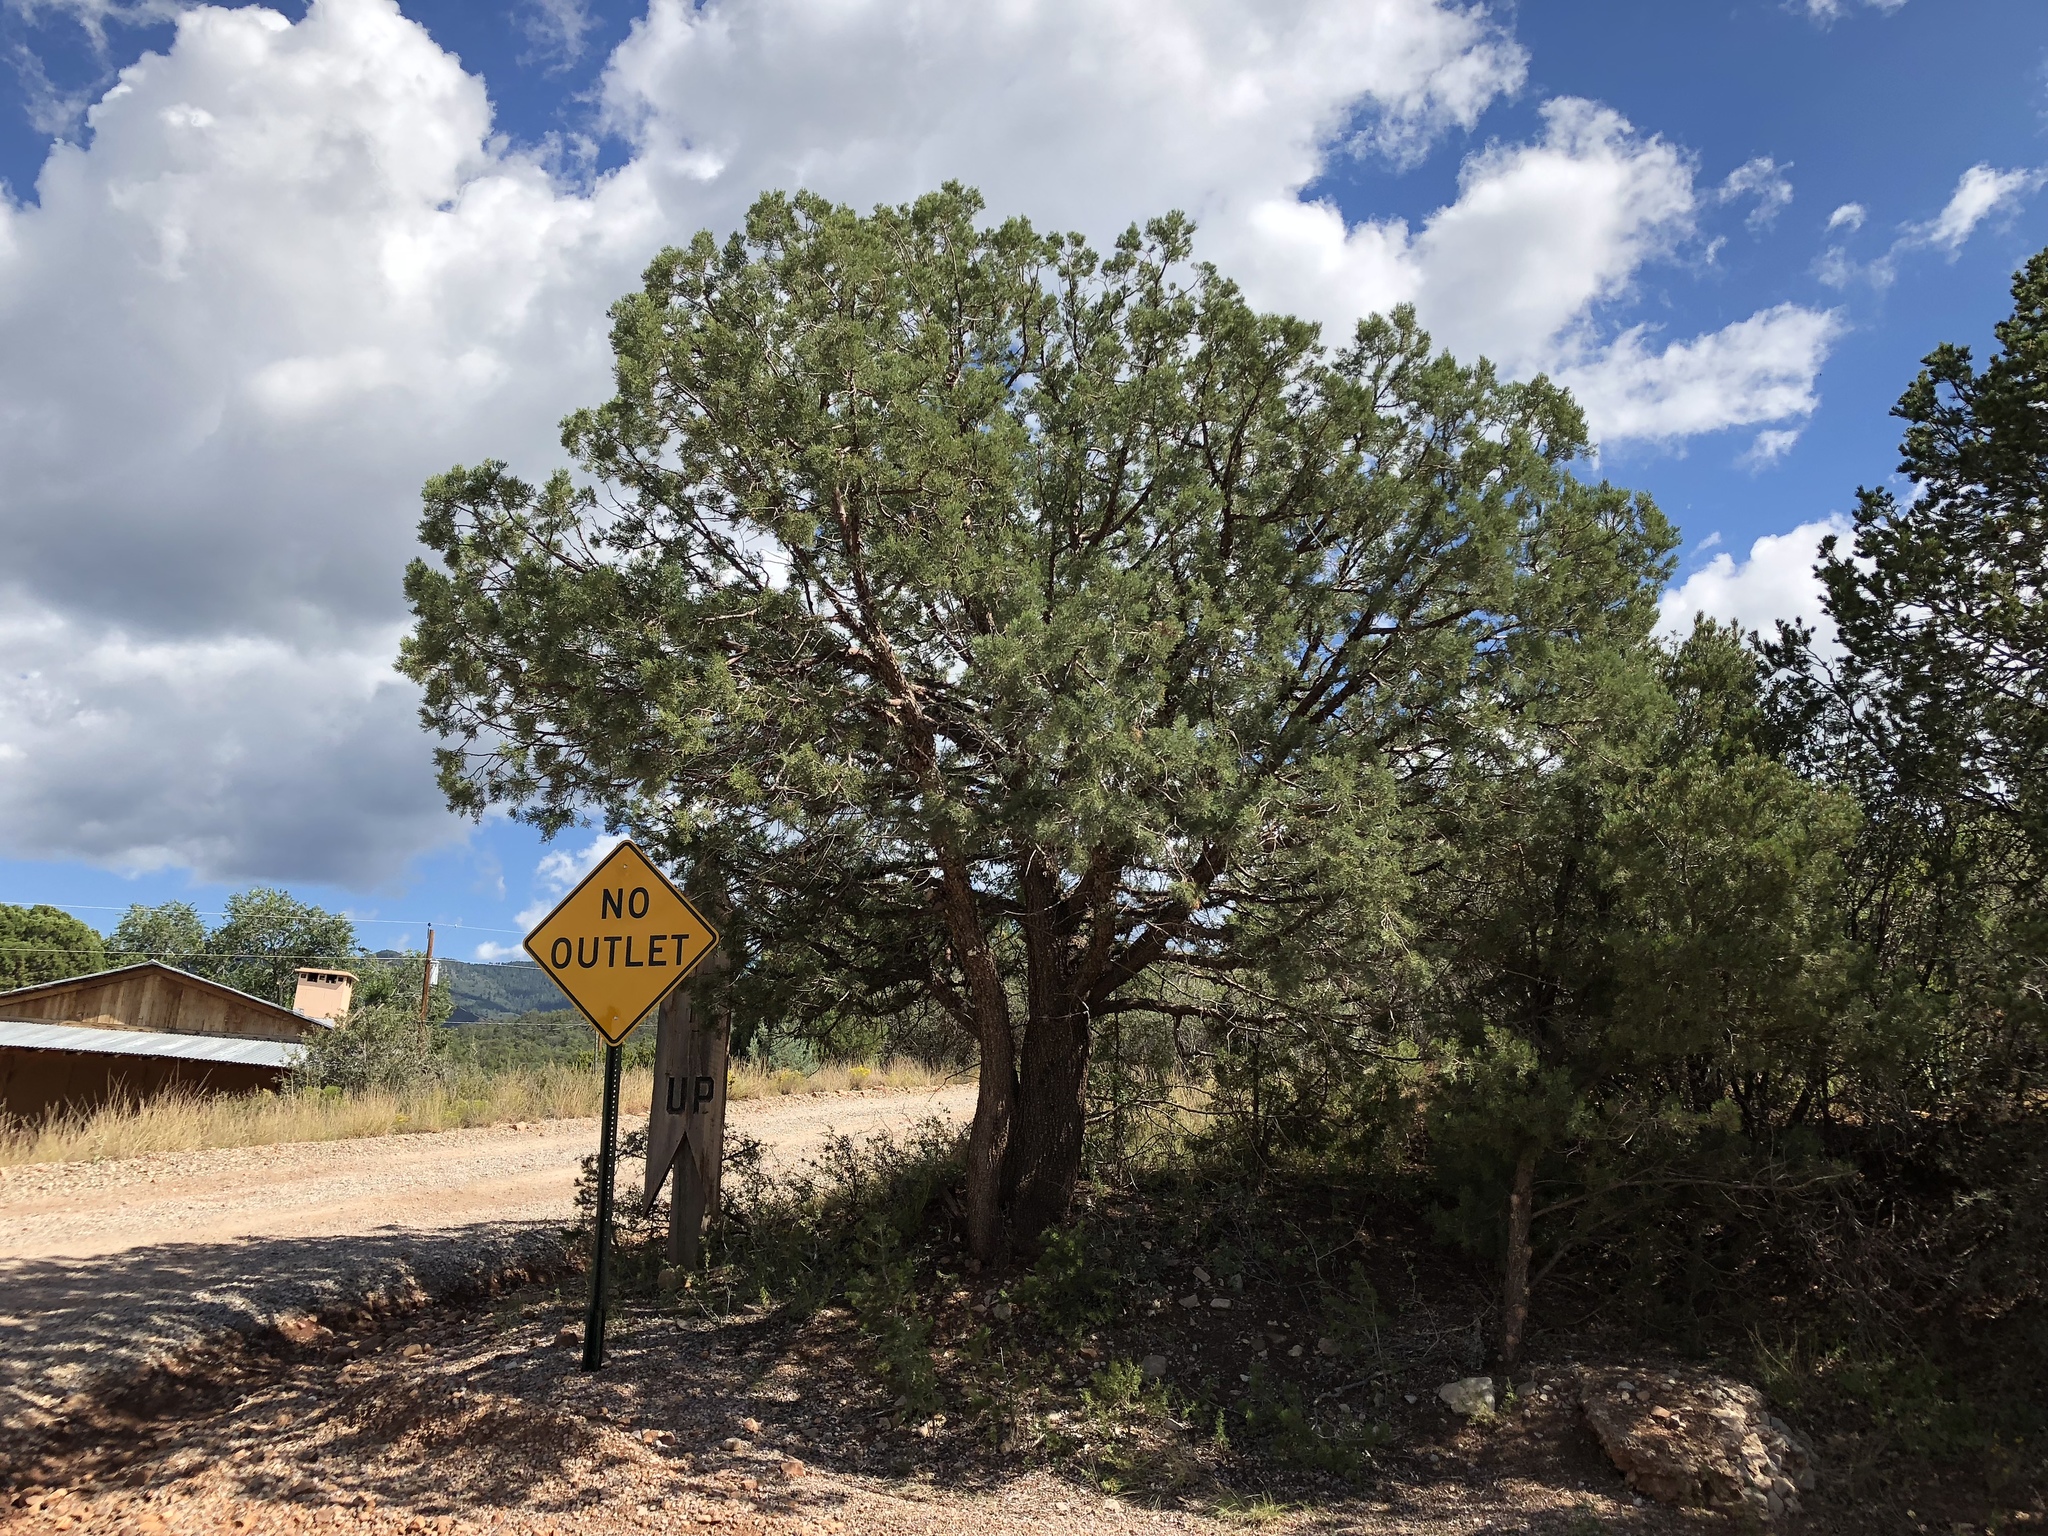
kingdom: Plantae
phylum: Tracheophyta
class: Pinopsida
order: Pinales
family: Pinaceae
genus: Pinus
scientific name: Pinus edulis
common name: Colorado pinyon
